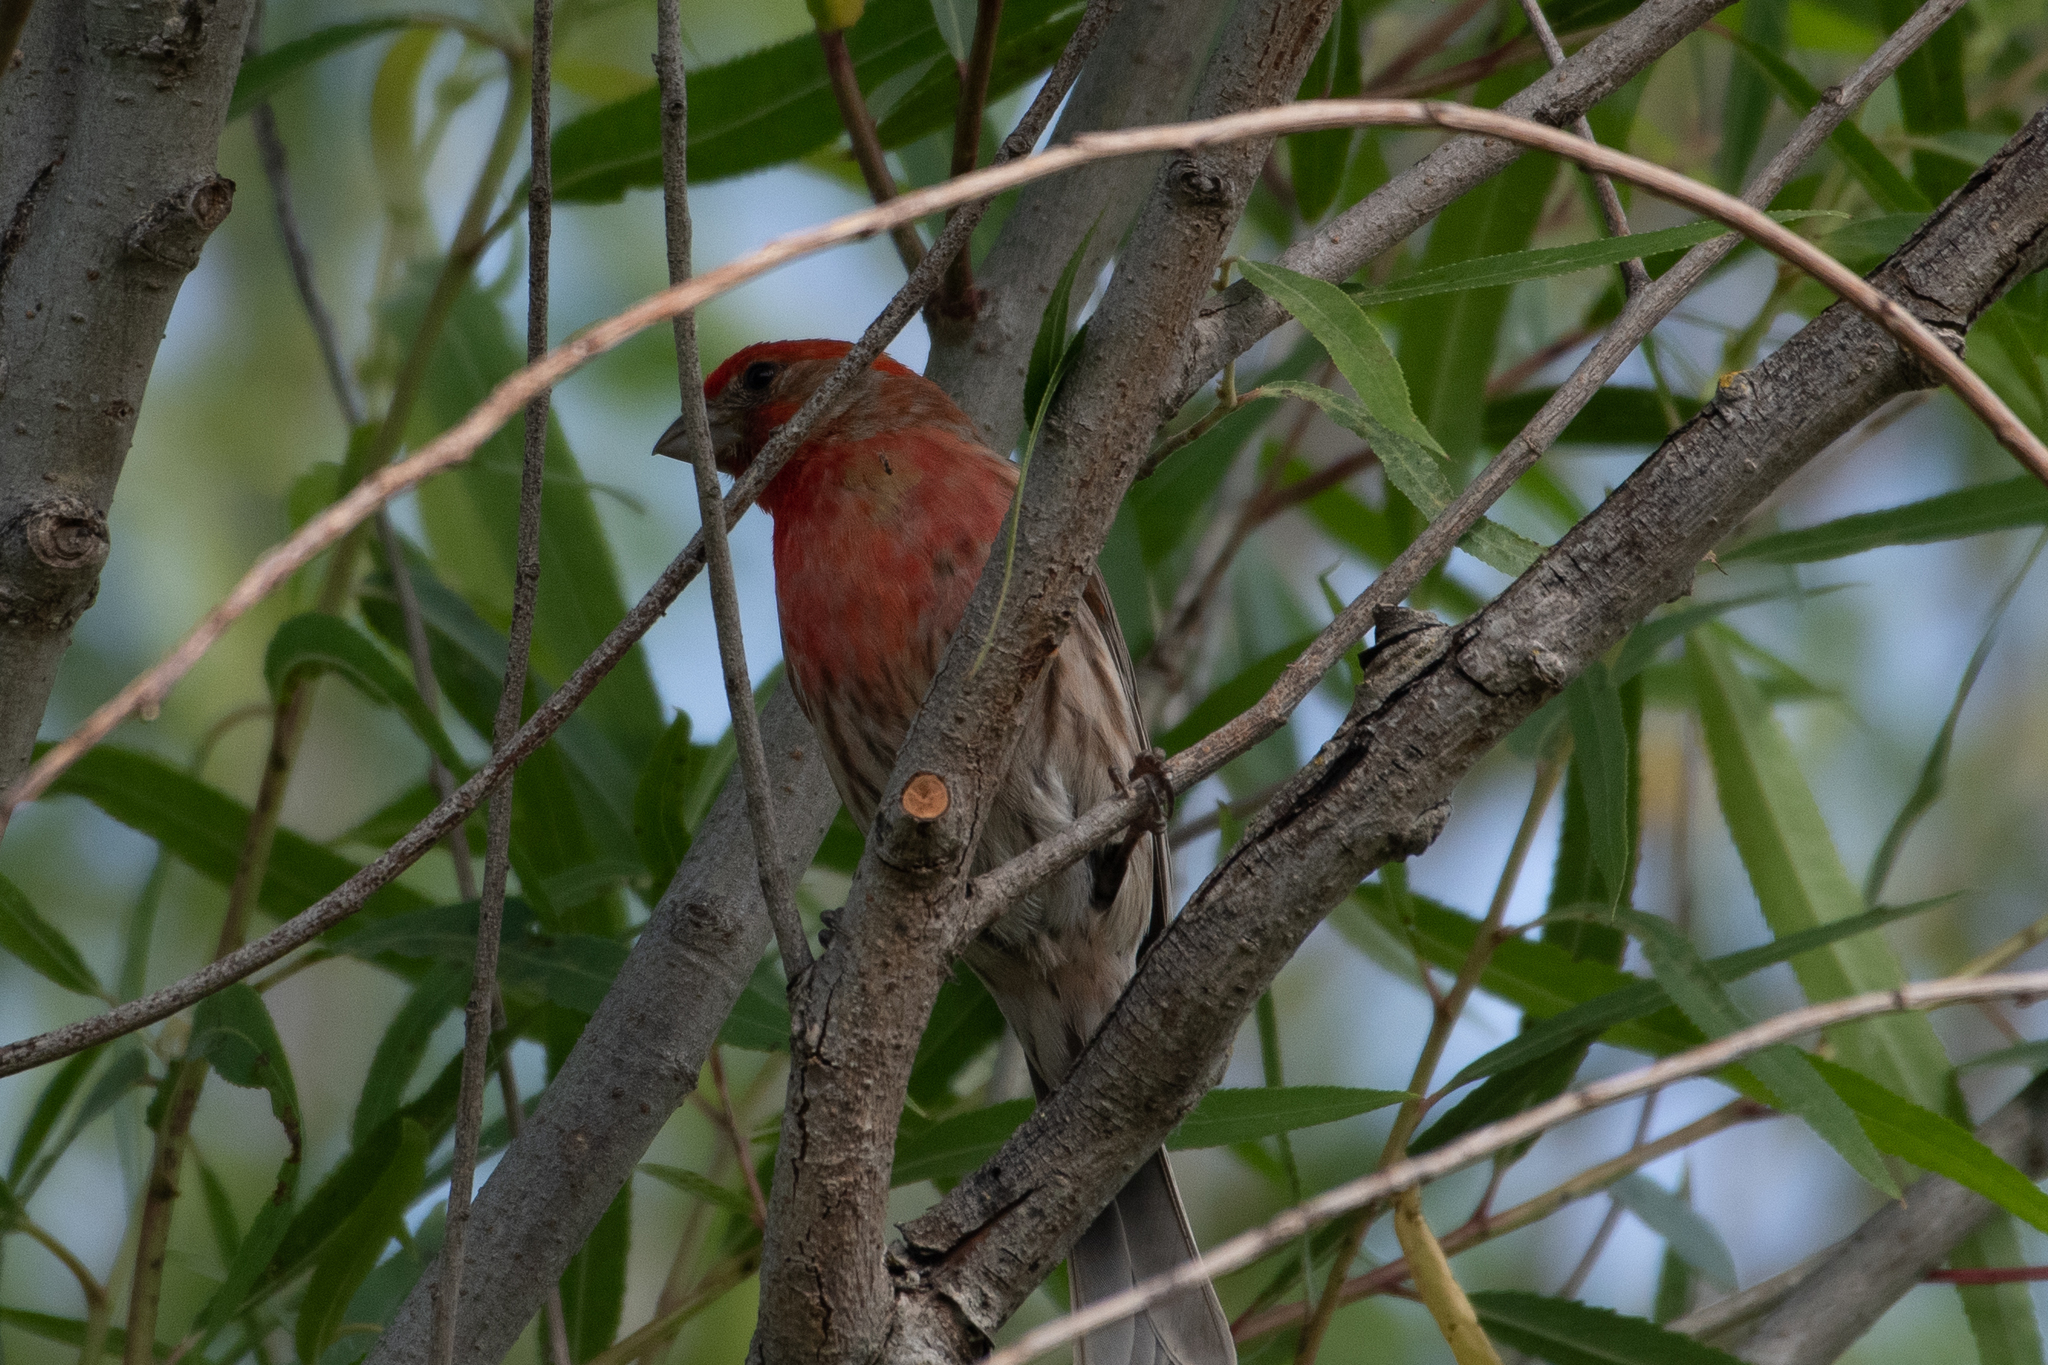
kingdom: Animalia
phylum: Chordata
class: Aves
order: Passeriformes
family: Fringillidae
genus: Haemorhous
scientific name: Haemorhous mexicanus
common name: House finch
